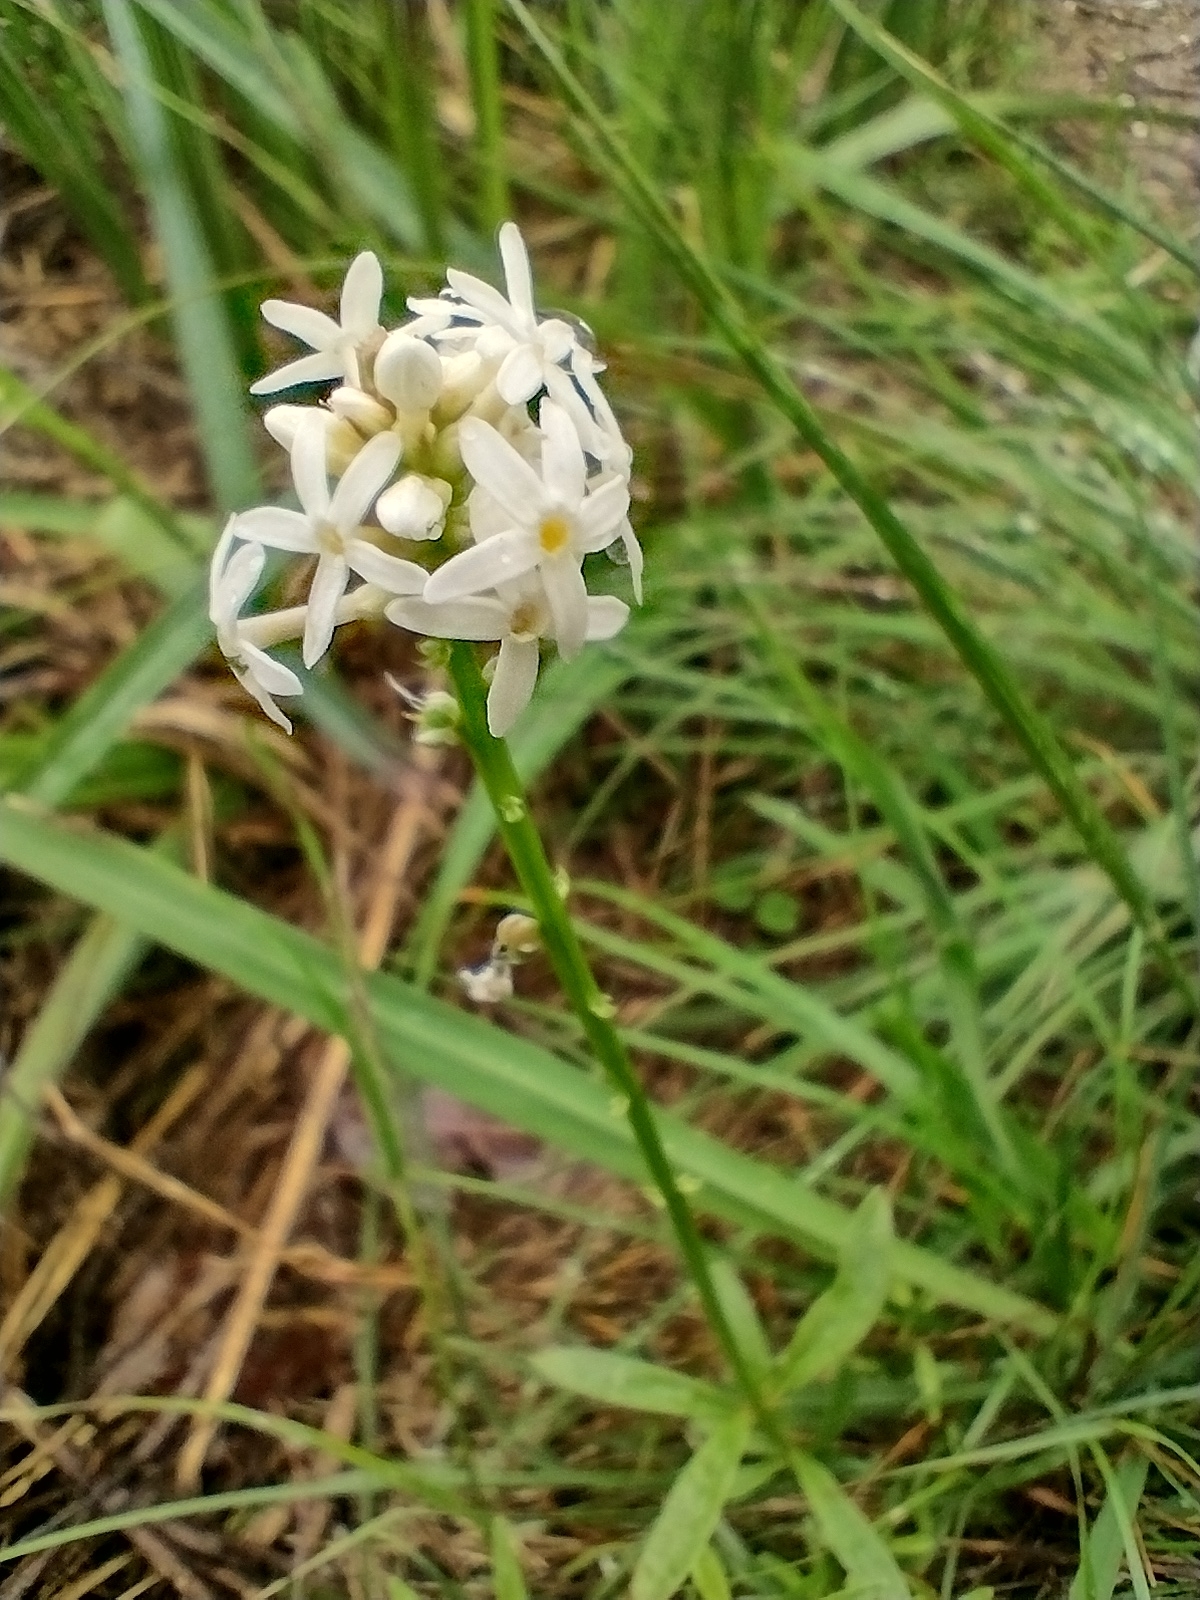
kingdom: Plantae
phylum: Tracheophyta
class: Magnoliopsida
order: Celastrales
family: Celastraceae
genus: Stackhousia
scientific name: Stackhousia monogyna
